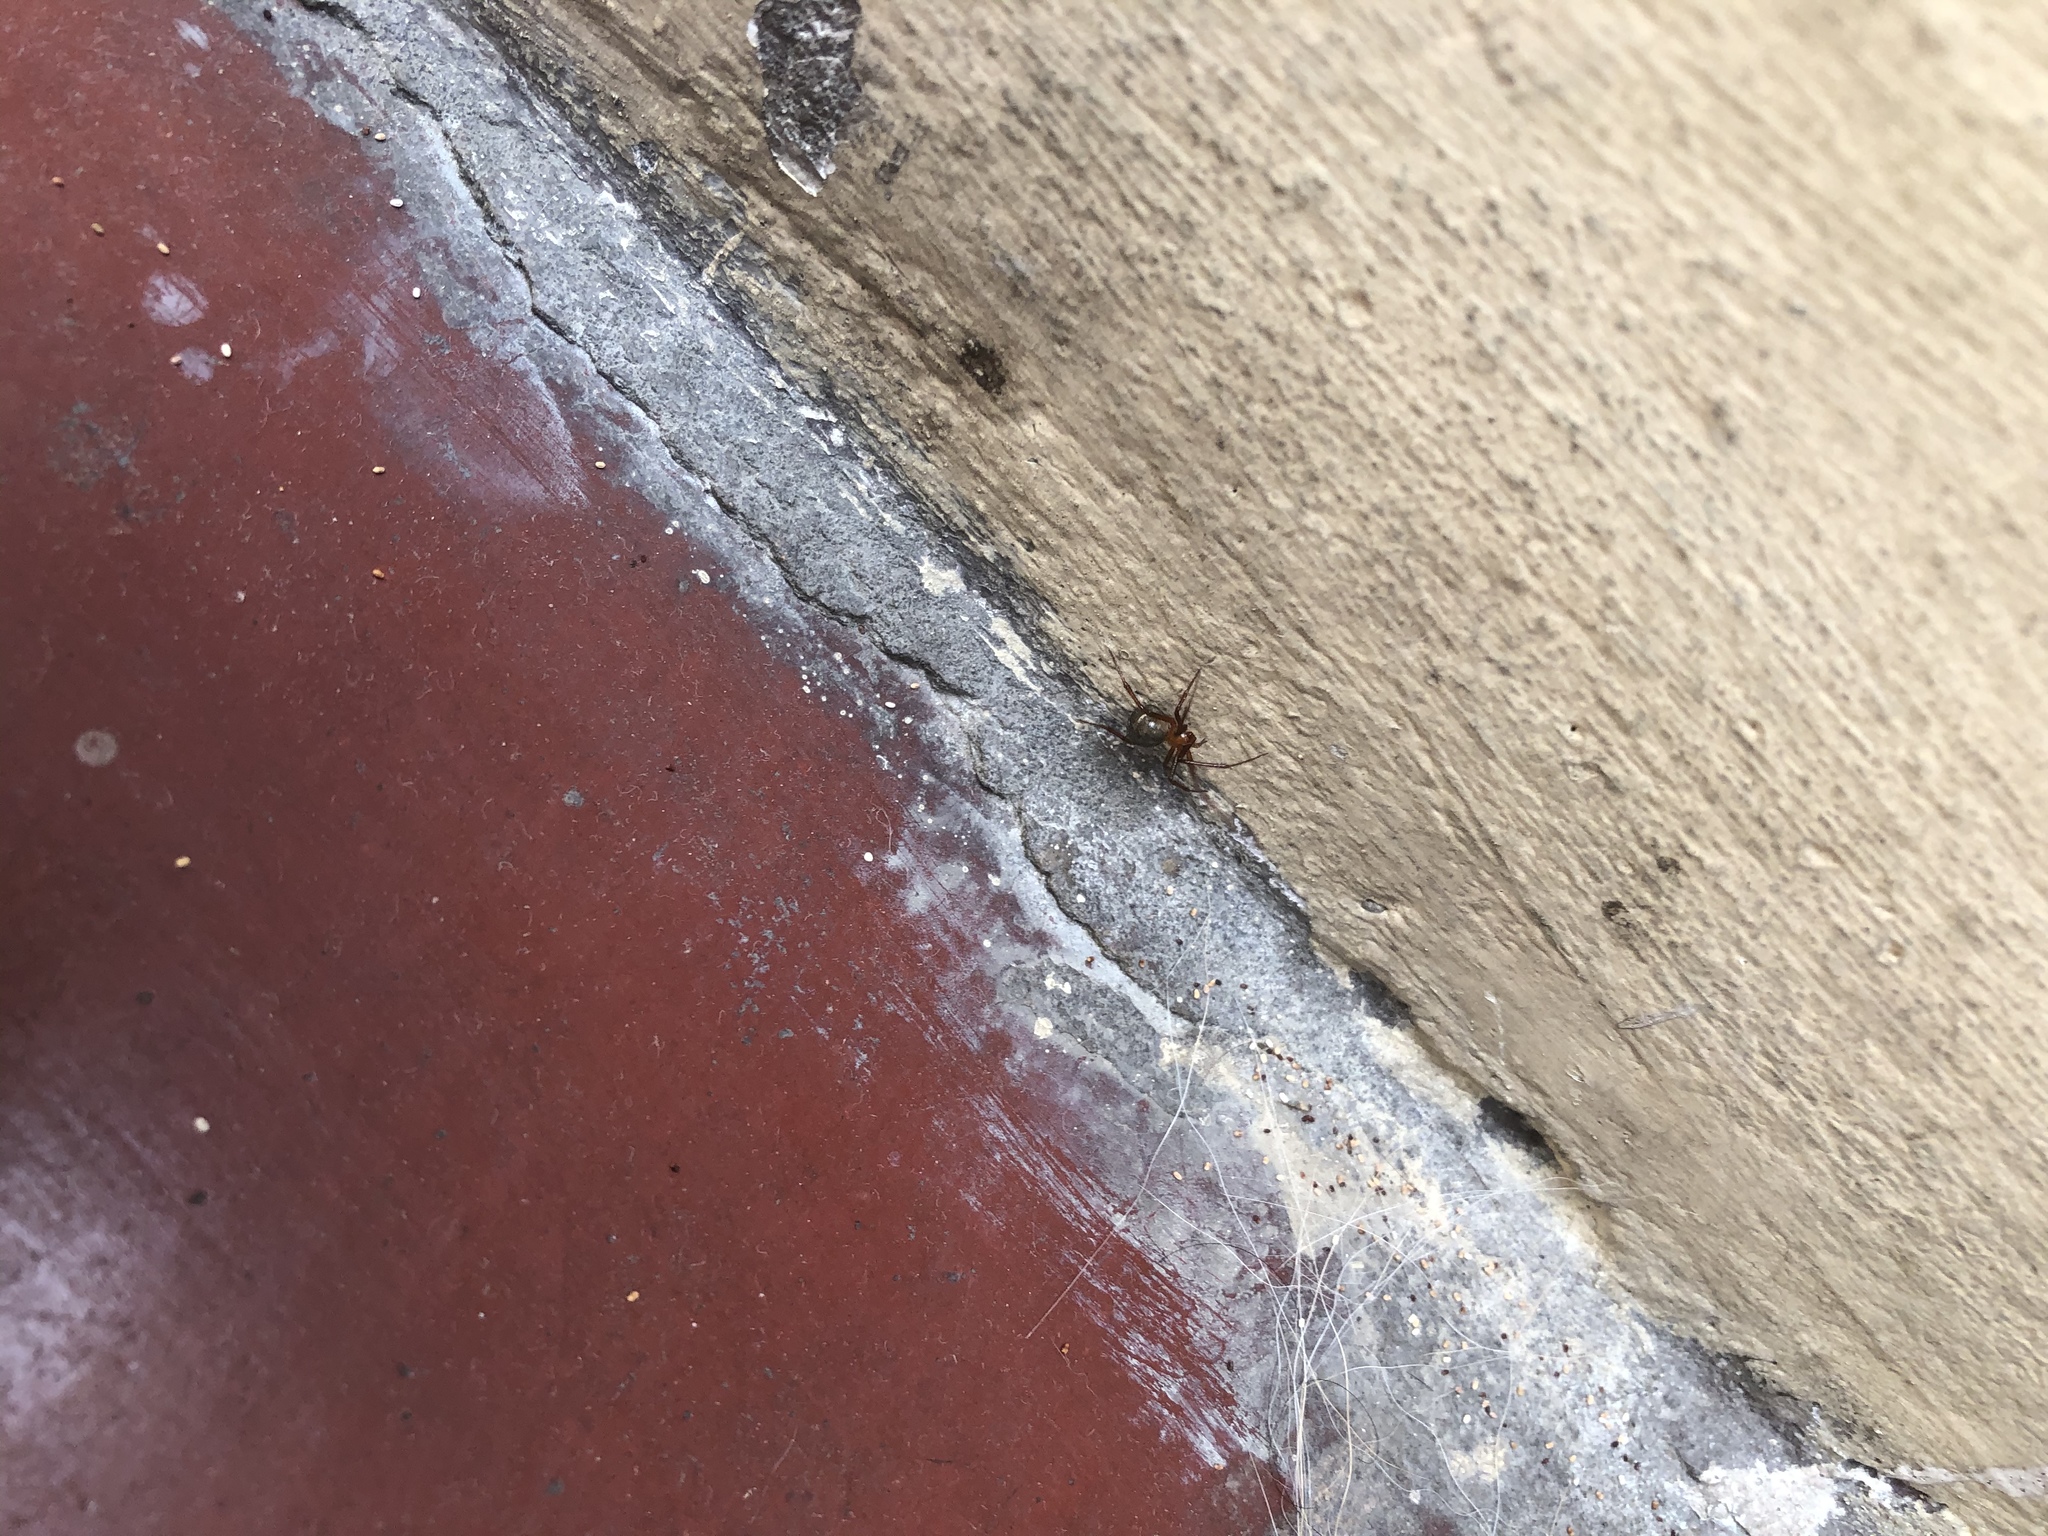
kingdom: Animalia
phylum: Arthropoda
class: Arachnida
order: Araneae
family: Theridiidae
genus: Nesticodes
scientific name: Nesticodes rufipes
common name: Cobweb spiders
